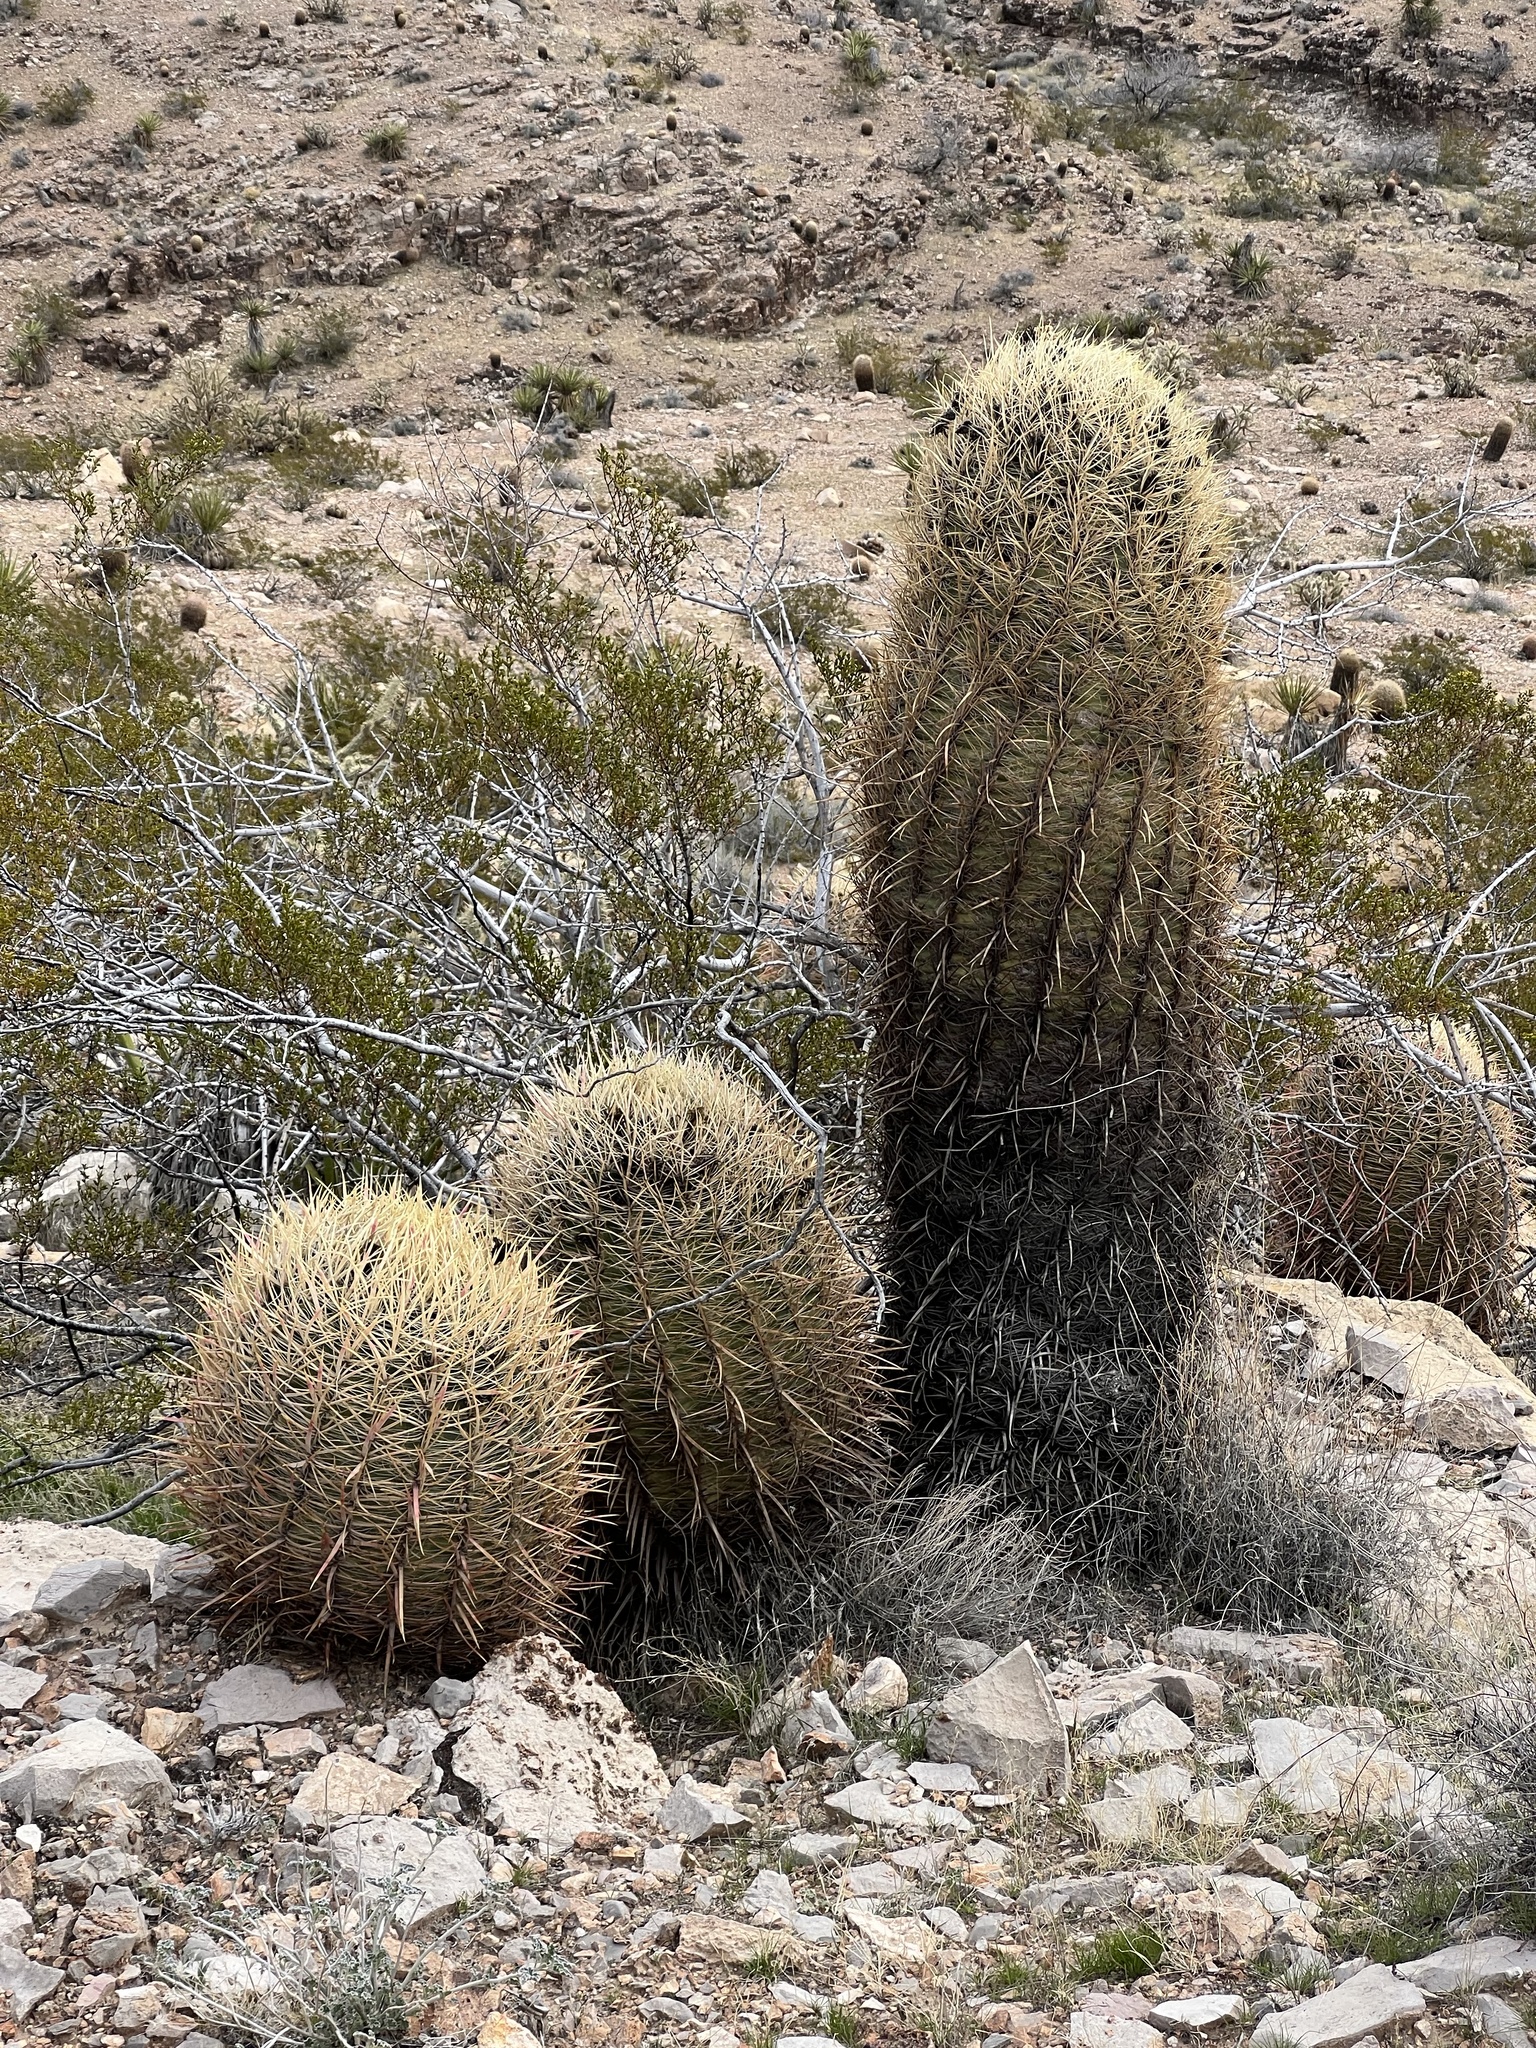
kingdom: Plantae
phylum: Tracheophyta
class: Magnoliopsida
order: Caryophyllales
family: Cactaceae
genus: Ferocactus
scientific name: Ferocactus cylindraceus
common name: California barrel cactus
